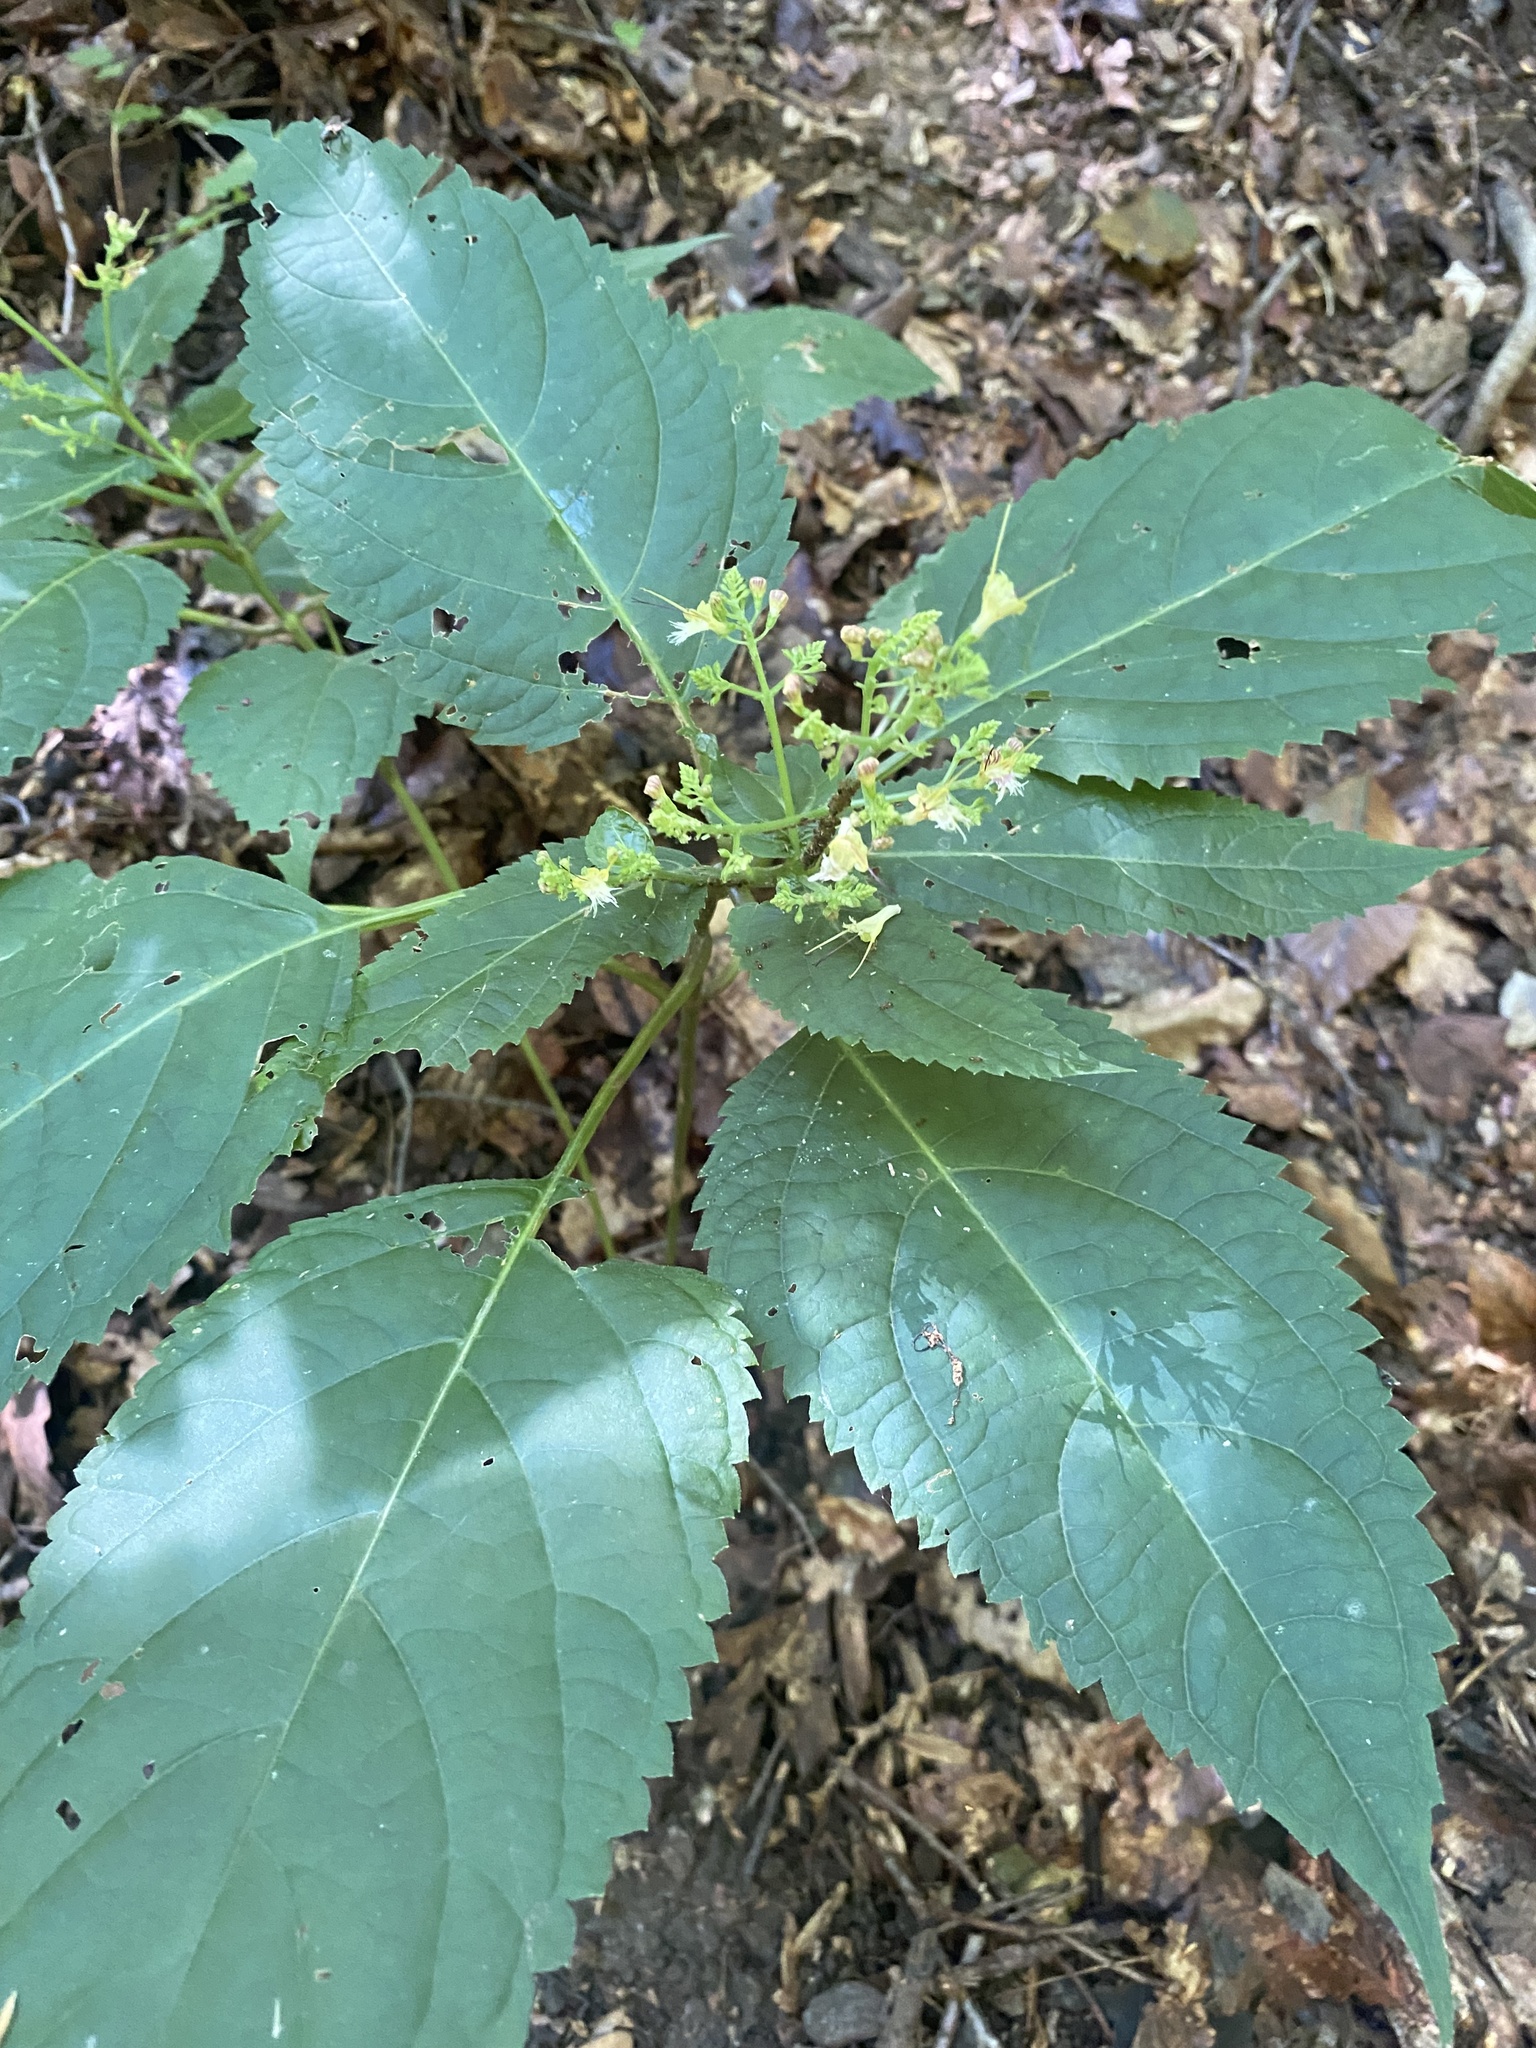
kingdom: Plantae
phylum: Tracheophyta
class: Magnoliopsida
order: Lamiales
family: Lamiaceae
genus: Collinsonia
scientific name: Collinsonia canadensis
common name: Northern horsebalm
